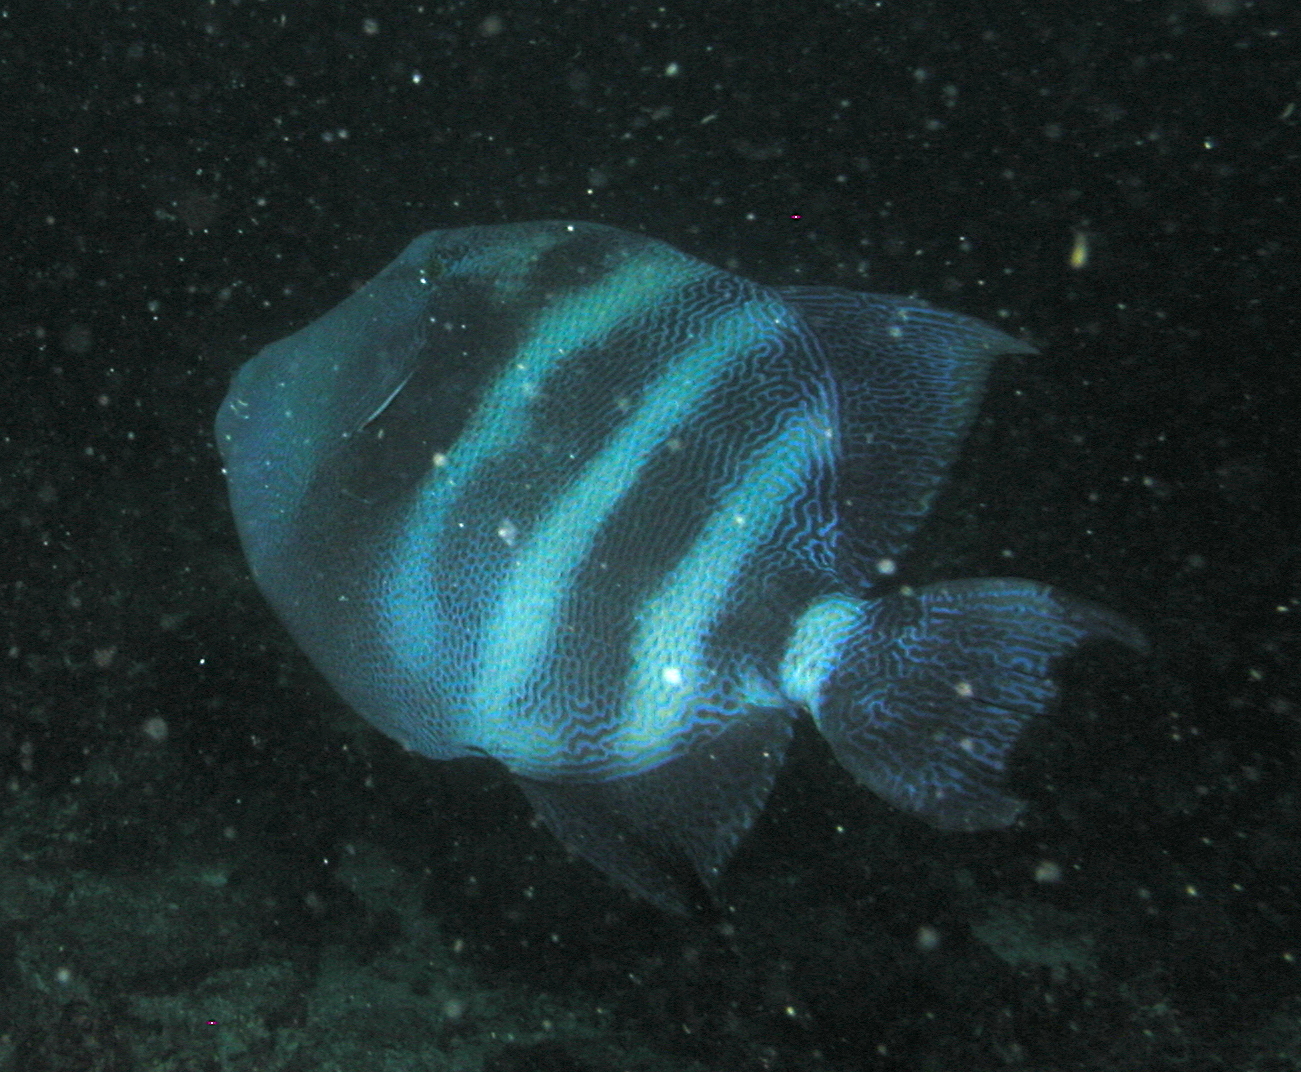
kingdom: Animalia
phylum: Chordata
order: Tetraodontiformes
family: Balistidae
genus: Pseudobalistes
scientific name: Pseudobalistes naufragium
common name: Blunthead triggerfish
